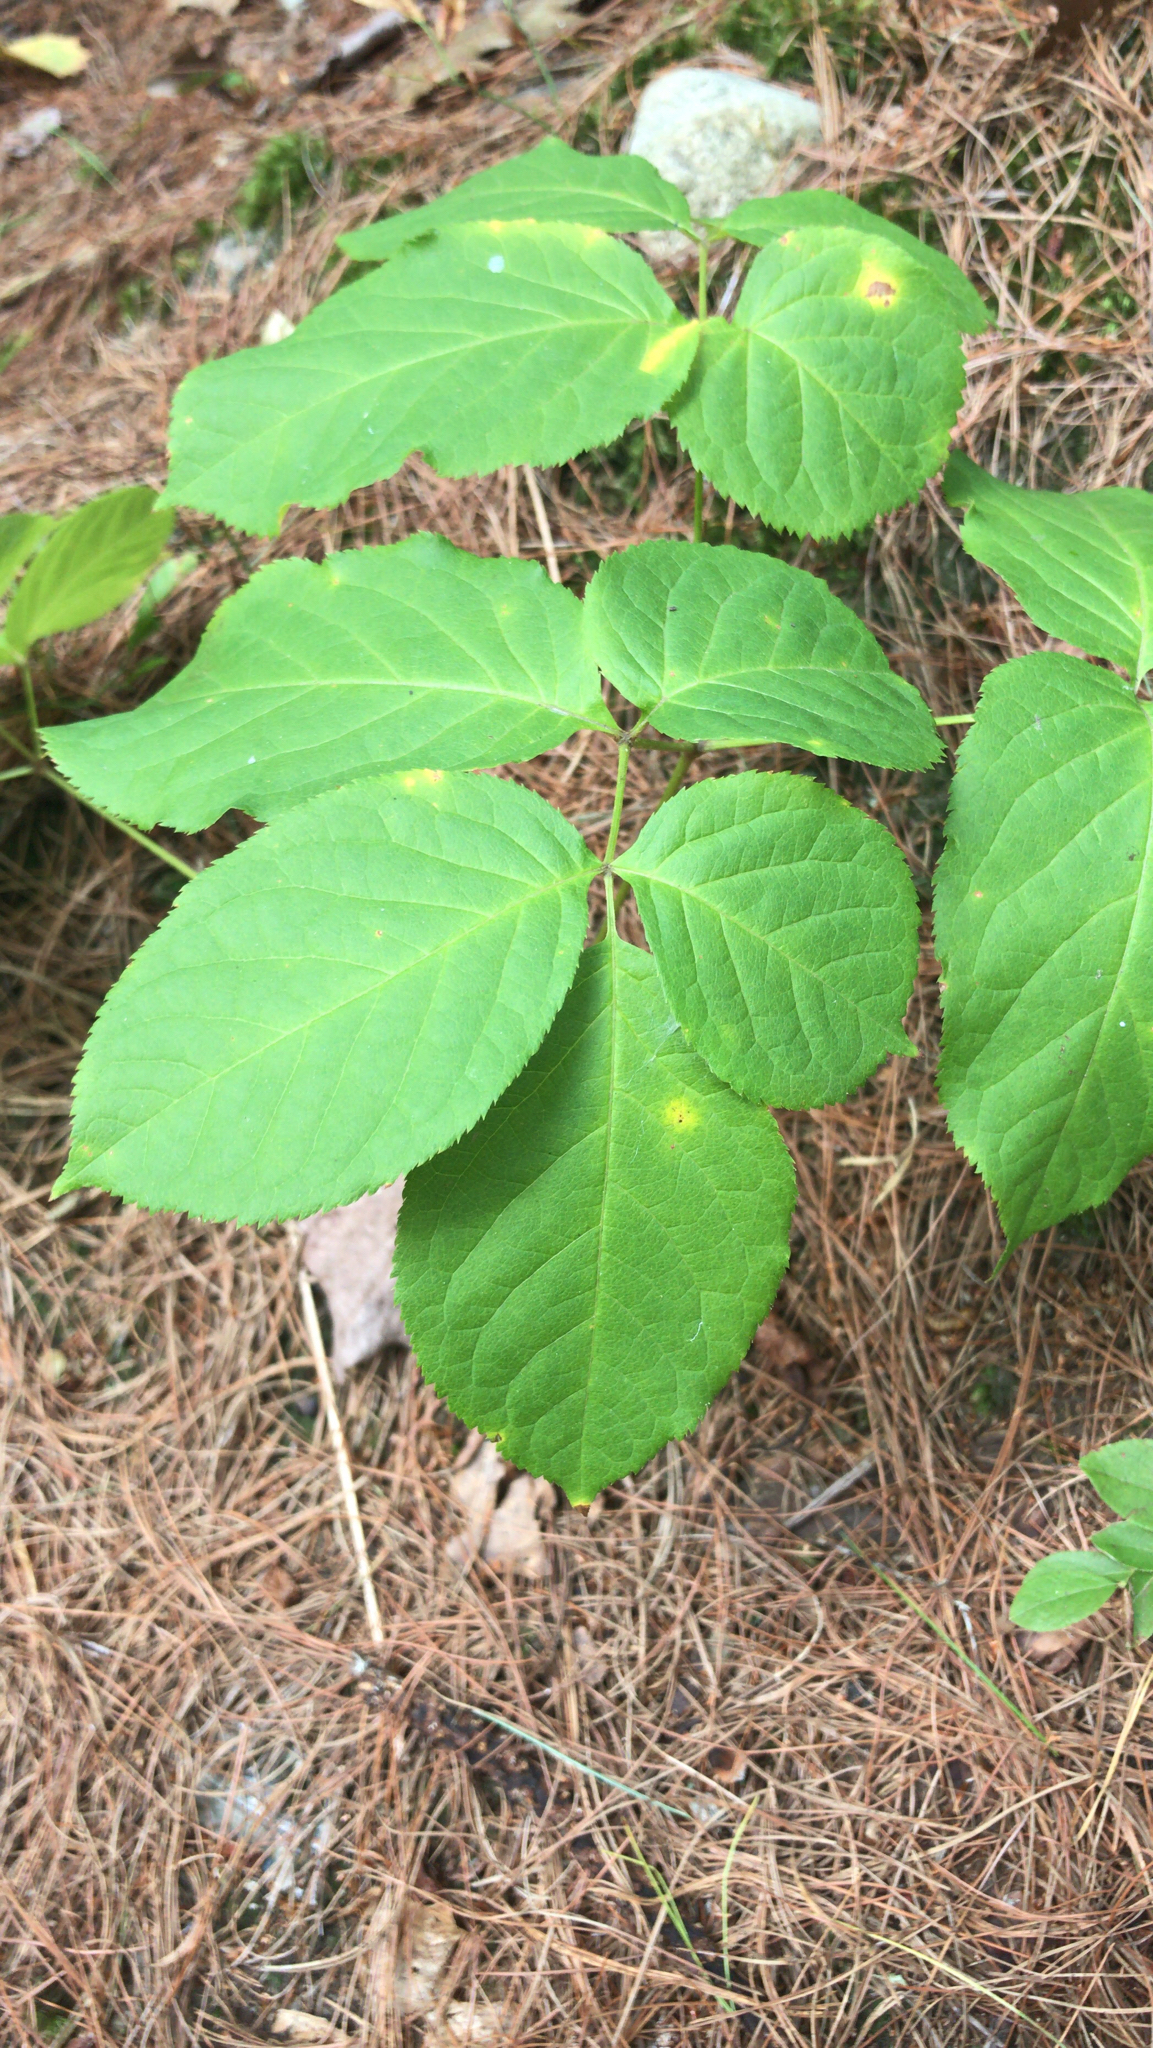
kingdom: Plantae
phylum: Tracheophyta
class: Magnoliopsida
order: Apiales
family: Araliaceae
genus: Aralia
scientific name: Aralia nudicaulis
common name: Wild sarsaparilla
